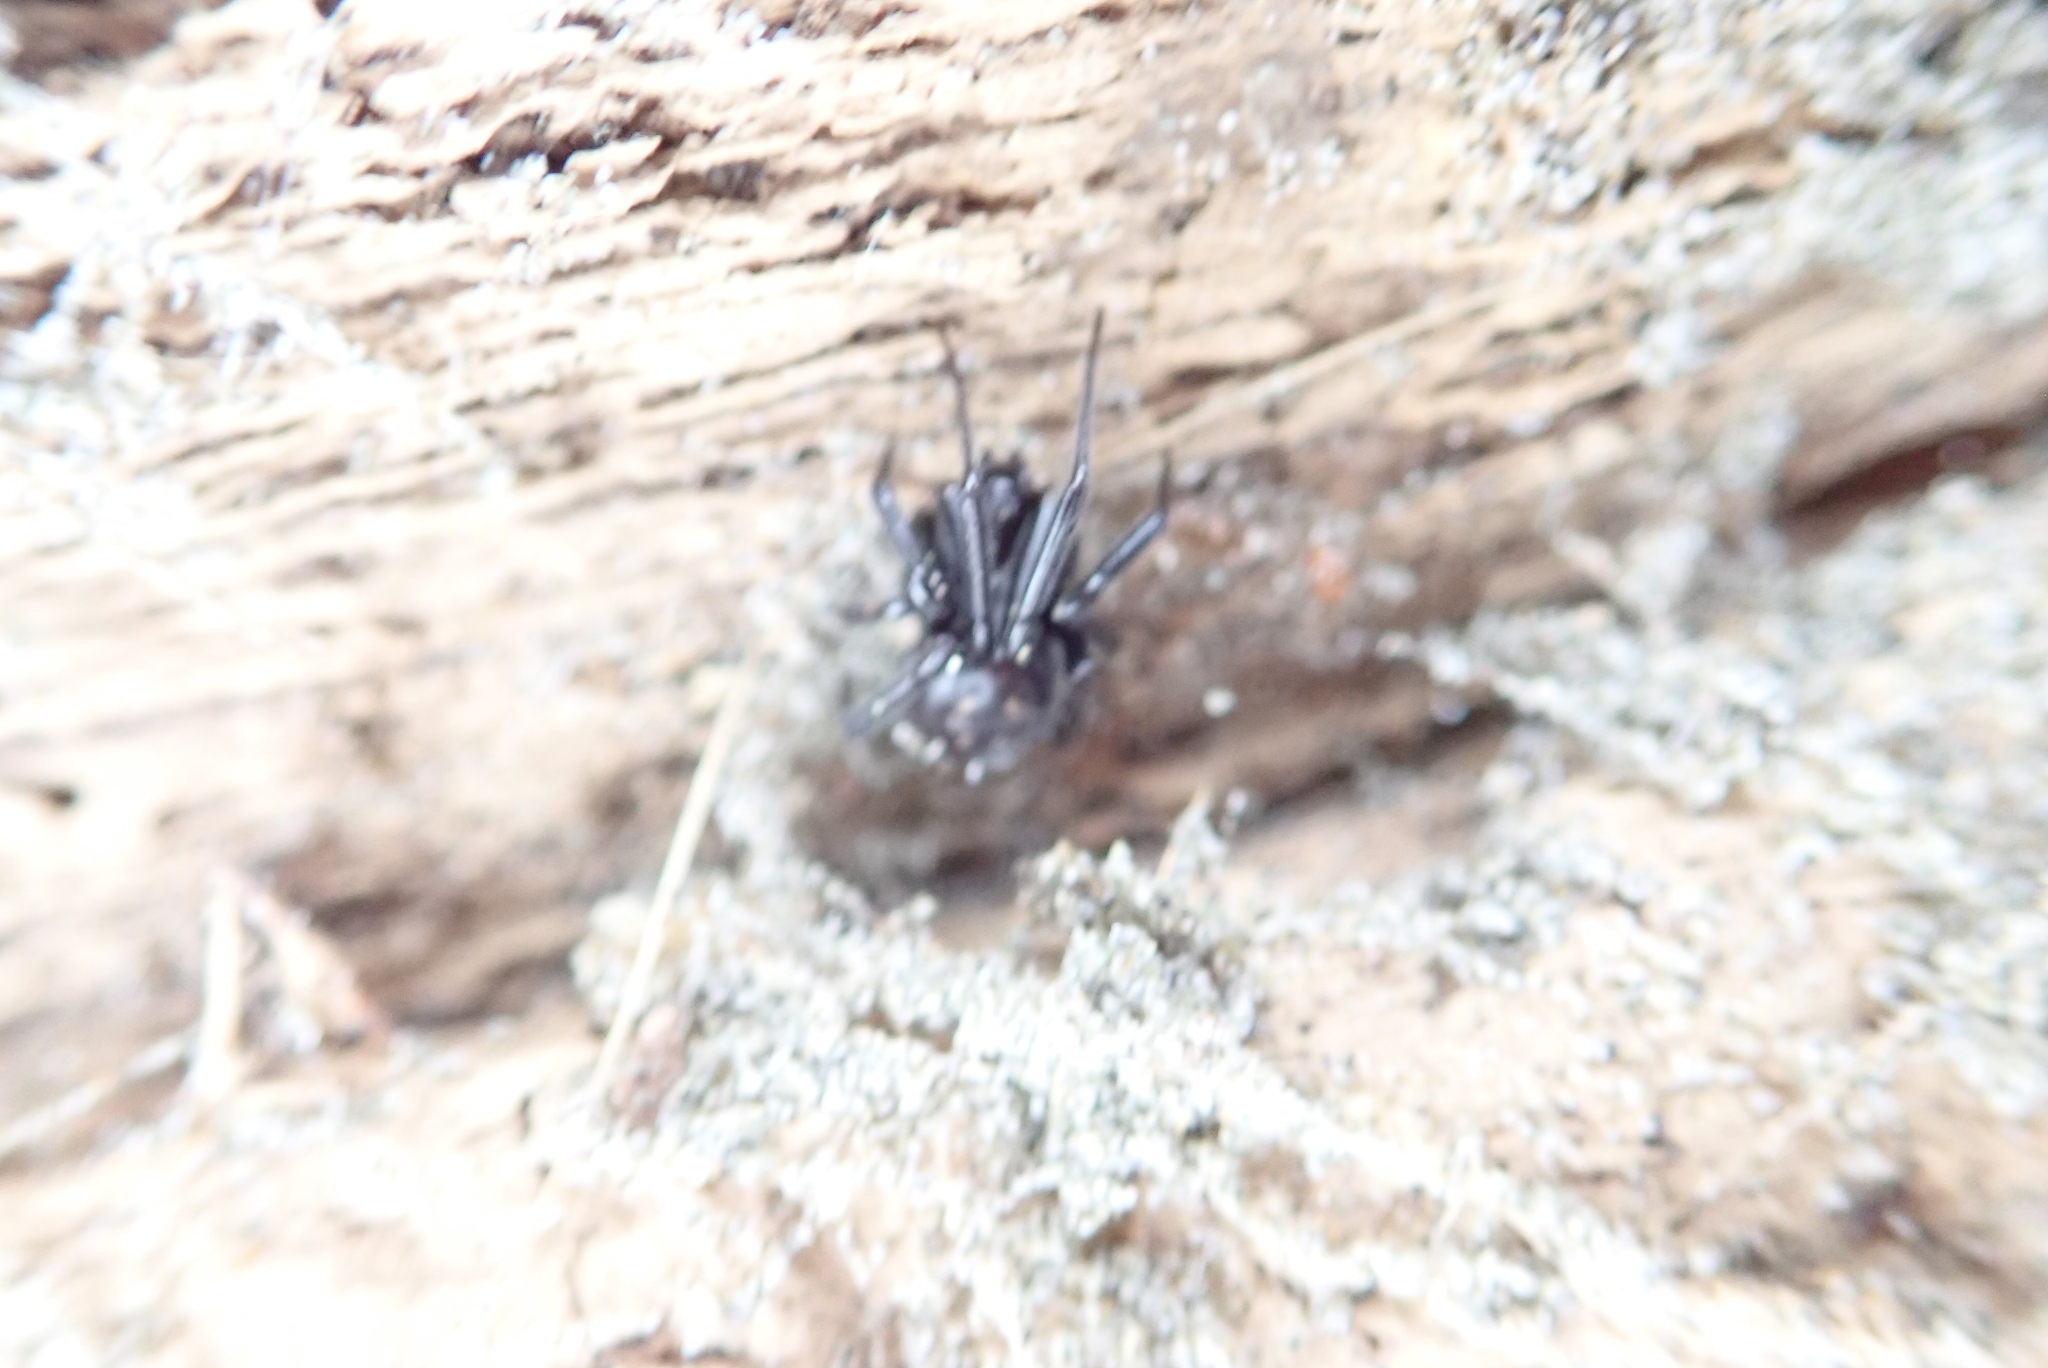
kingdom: Animalia
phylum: Arthropoda
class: Arachnida
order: Araneae
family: Theridiidae
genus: Steatoda
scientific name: Steatoda capensis
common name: Cobweb weaver
